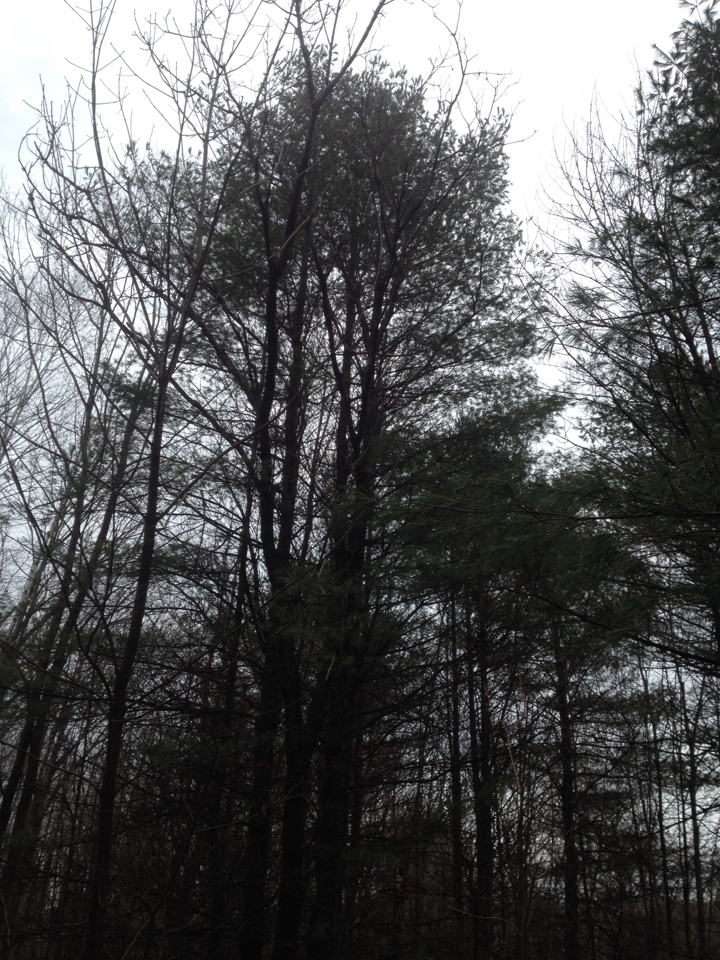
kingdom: Plantae
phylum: Tracheophyta
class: Pinopsida
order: Pinales
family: Pinaceae
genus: Pinus
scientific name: Pinus strobus
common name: Weymouth pine
